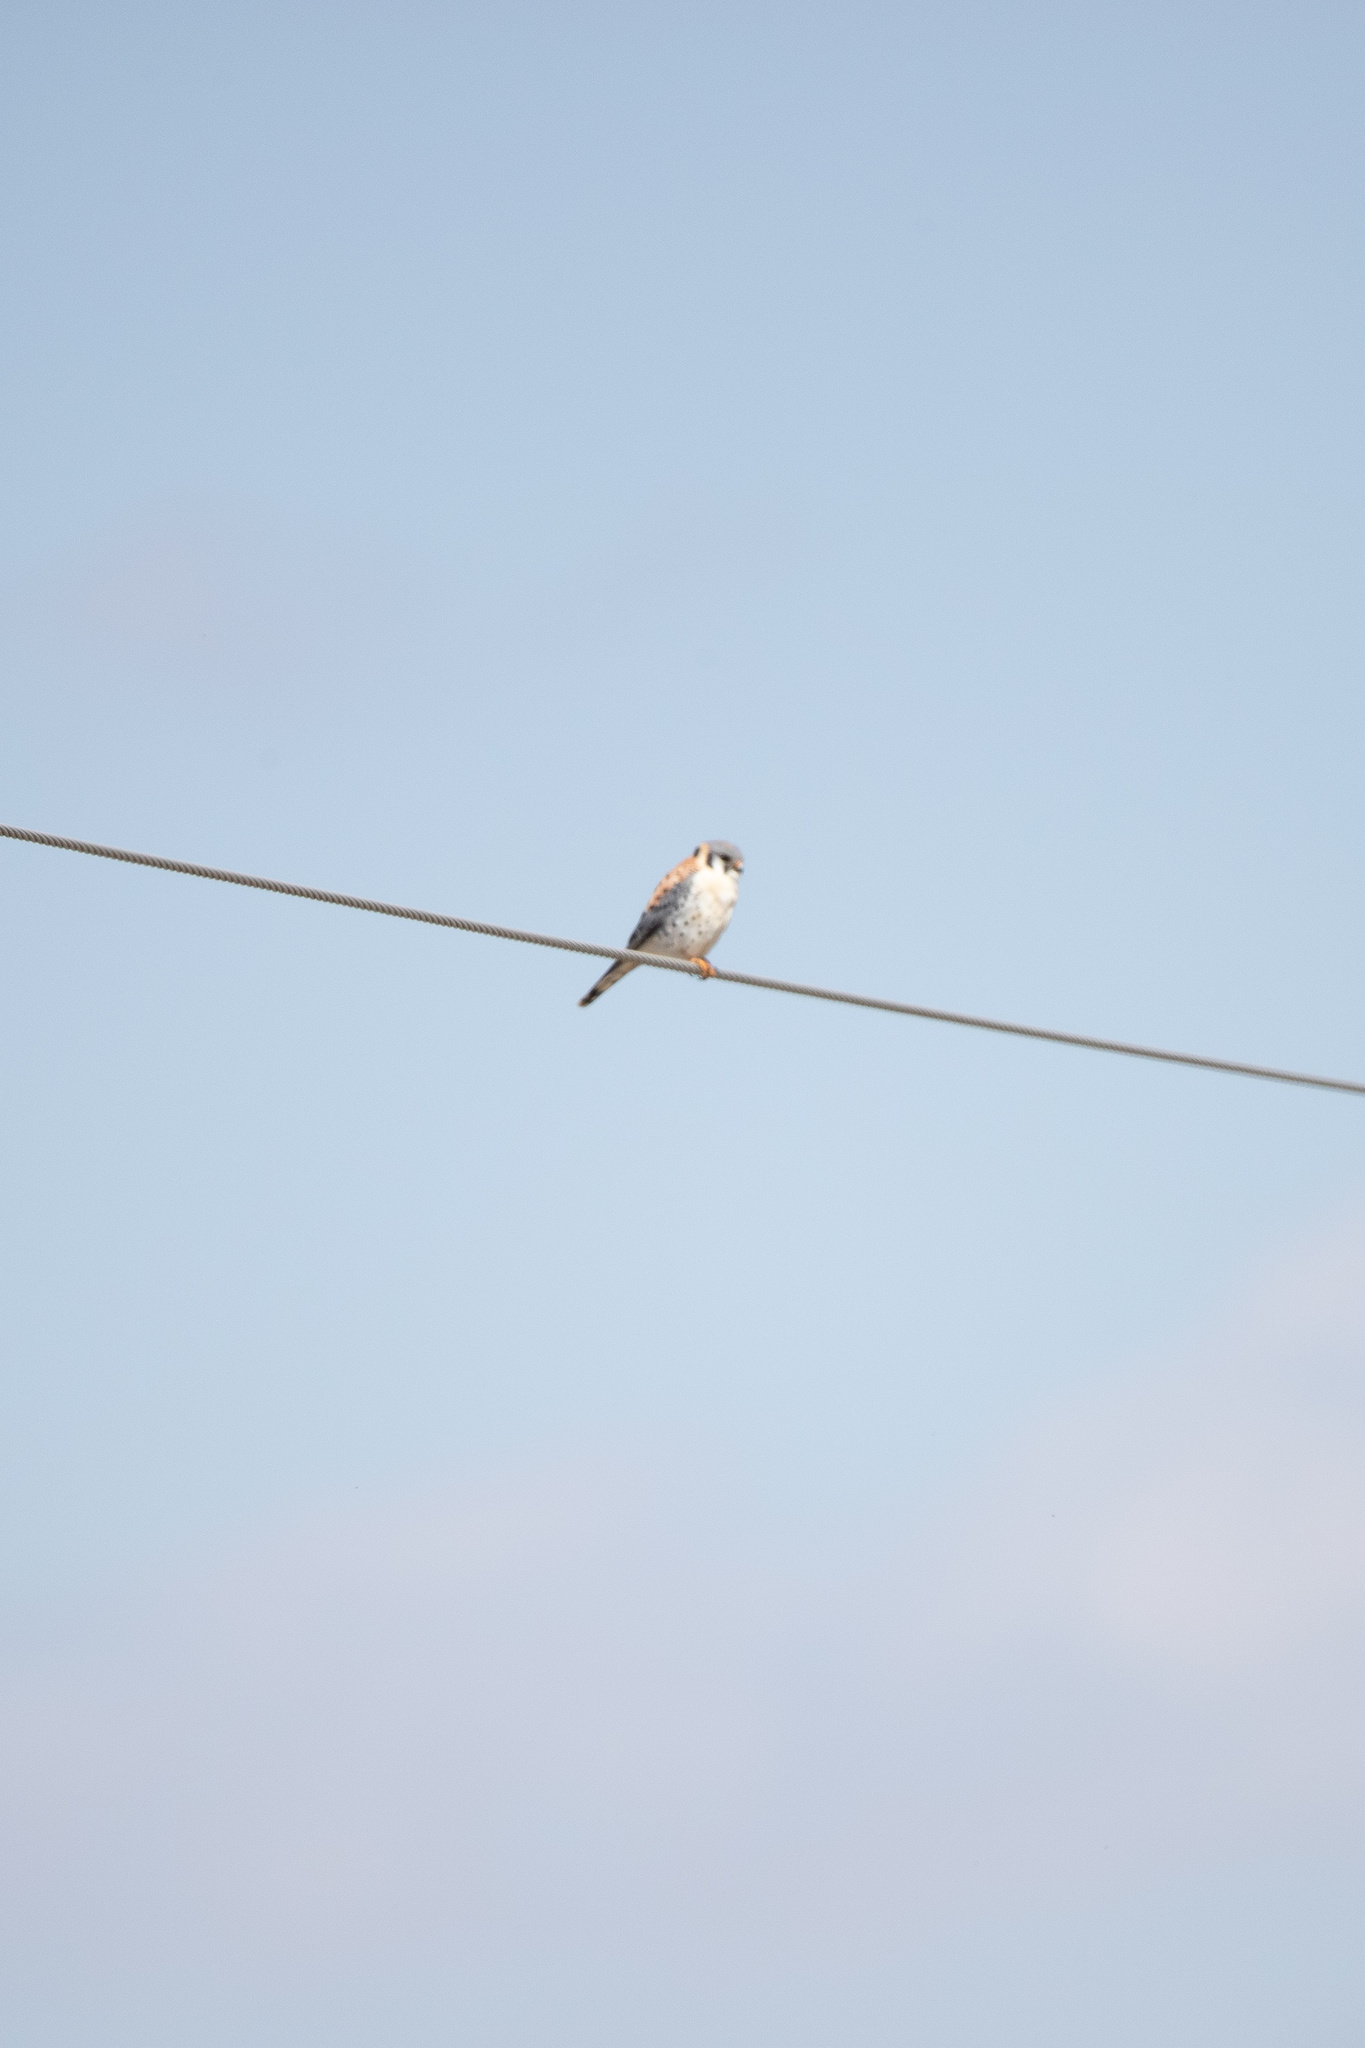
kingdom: Animalia
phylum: Chordata
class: Aves
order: Falconiformes
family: Falconidae
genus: Falco
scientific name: Falco sparverius
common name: American kestrel
